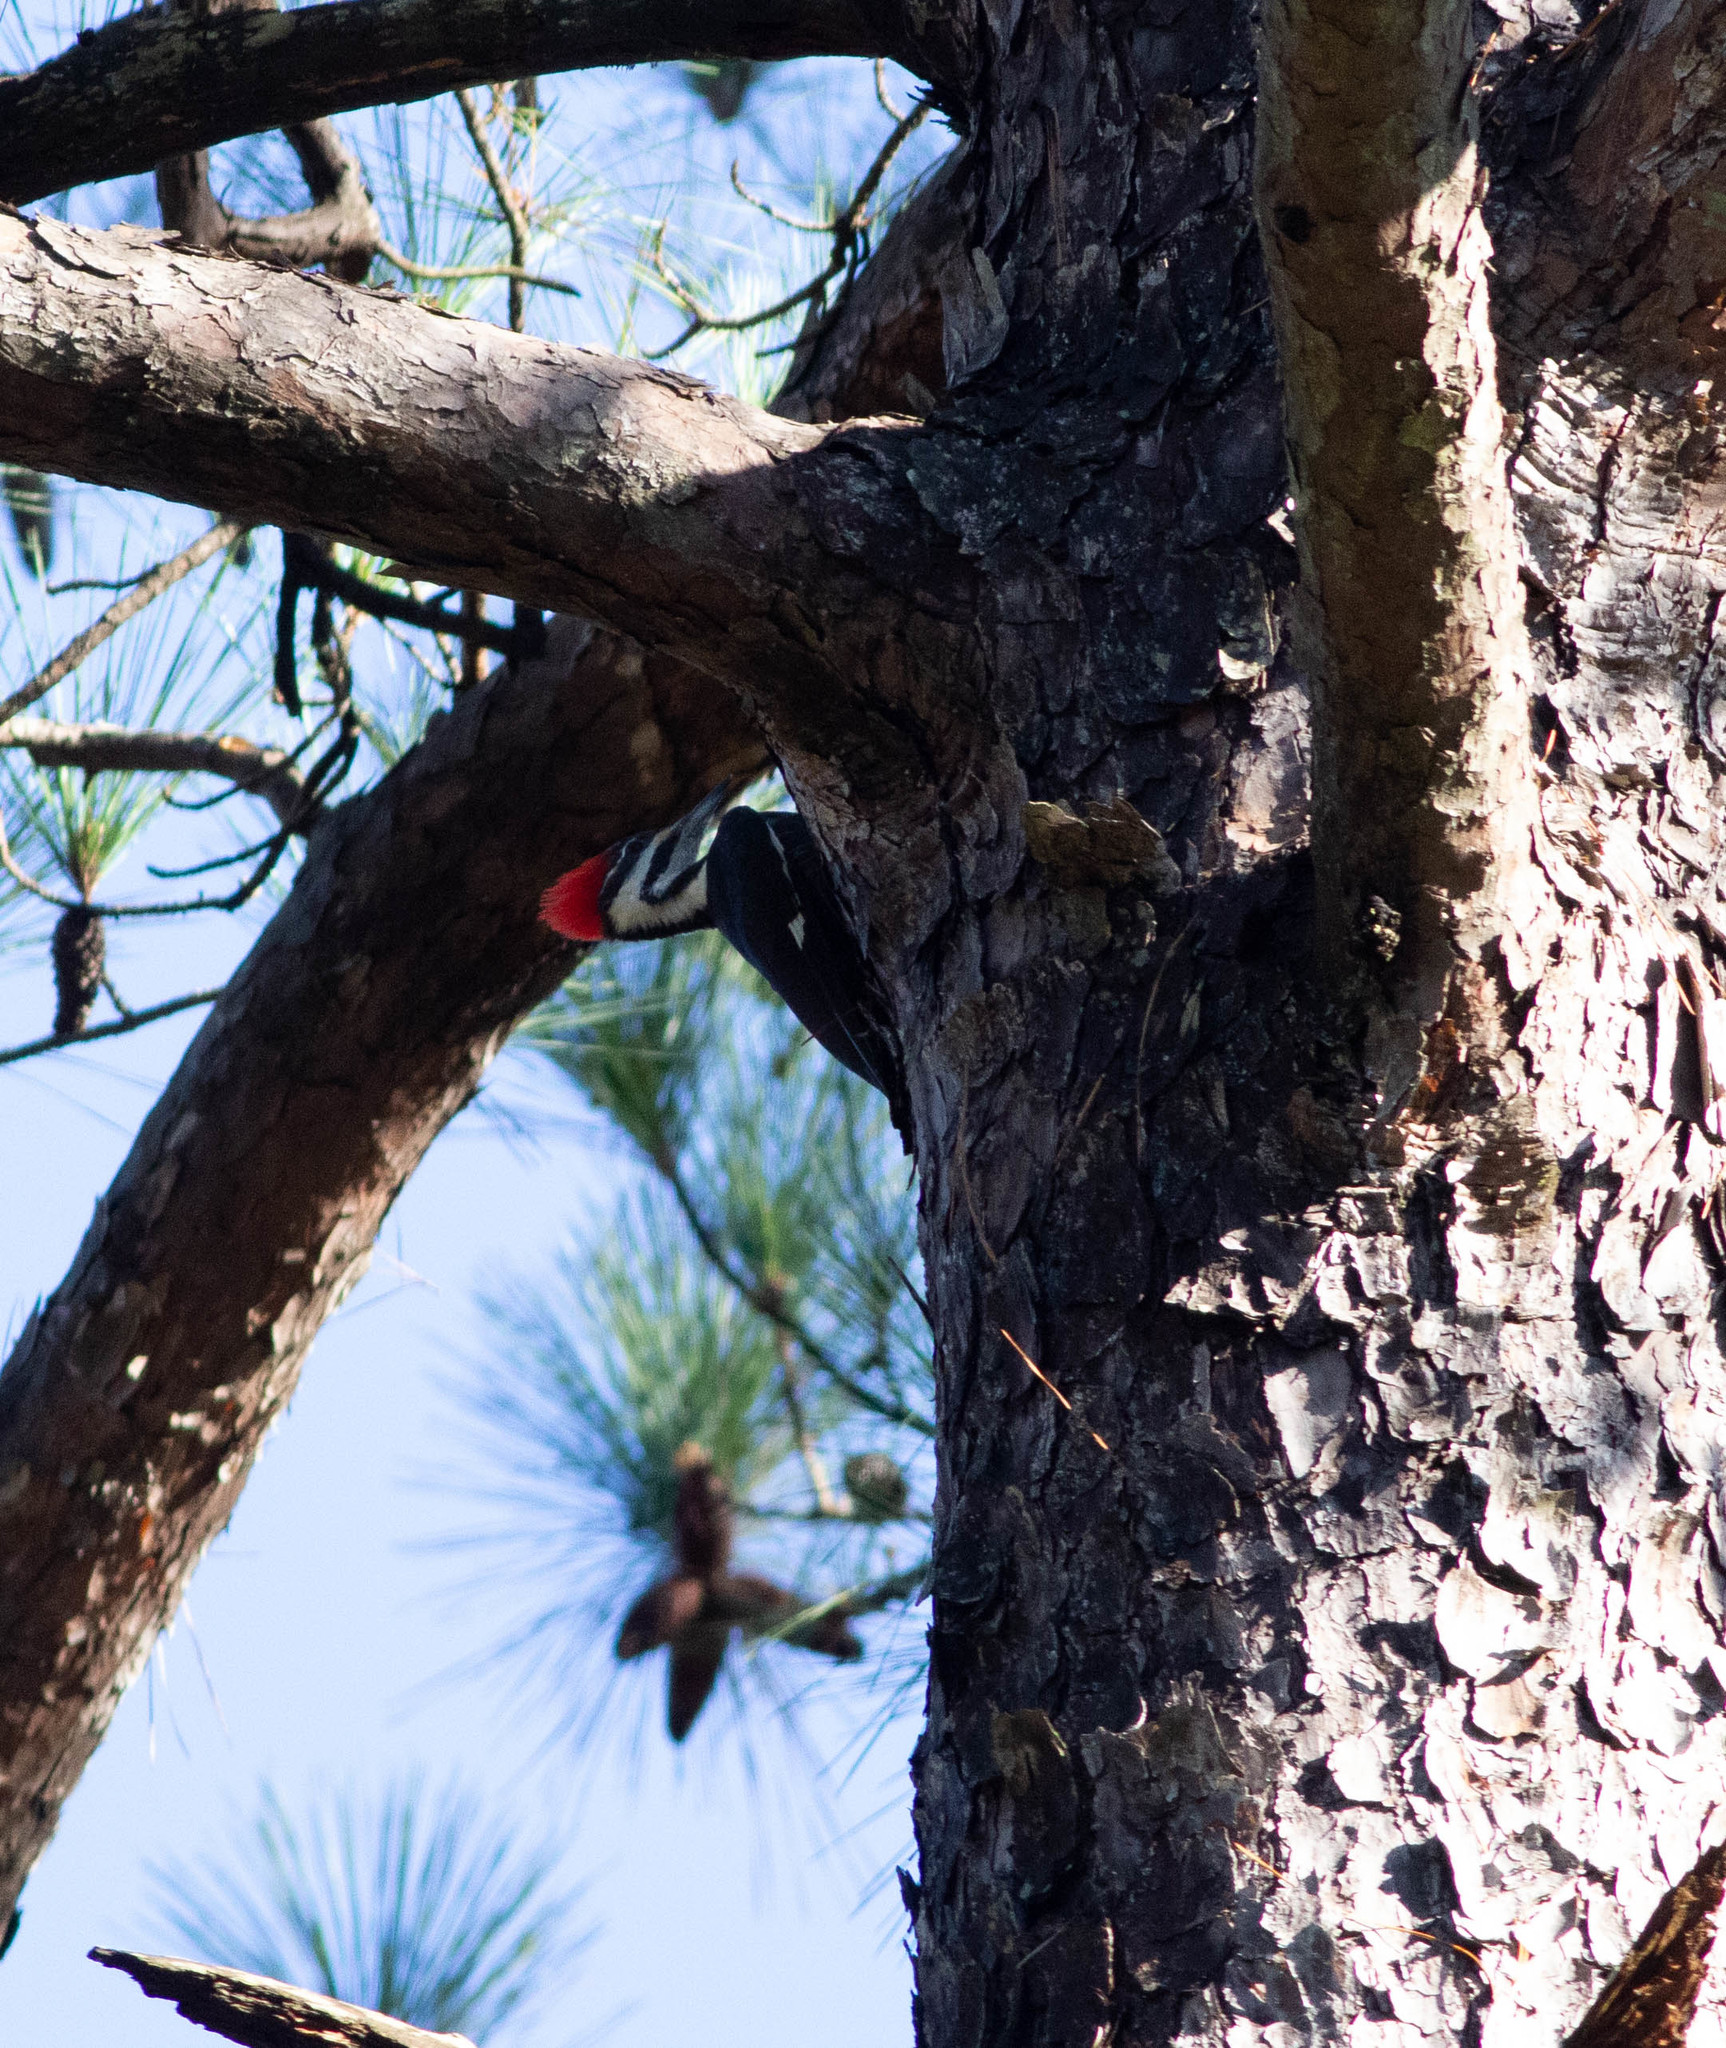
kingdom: Animalia
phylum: Chordata
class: Aves
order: Piciformes
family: Picidae
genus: Dryocopus
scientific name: Dryocopus pileatus
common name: Pileated woodpecker
